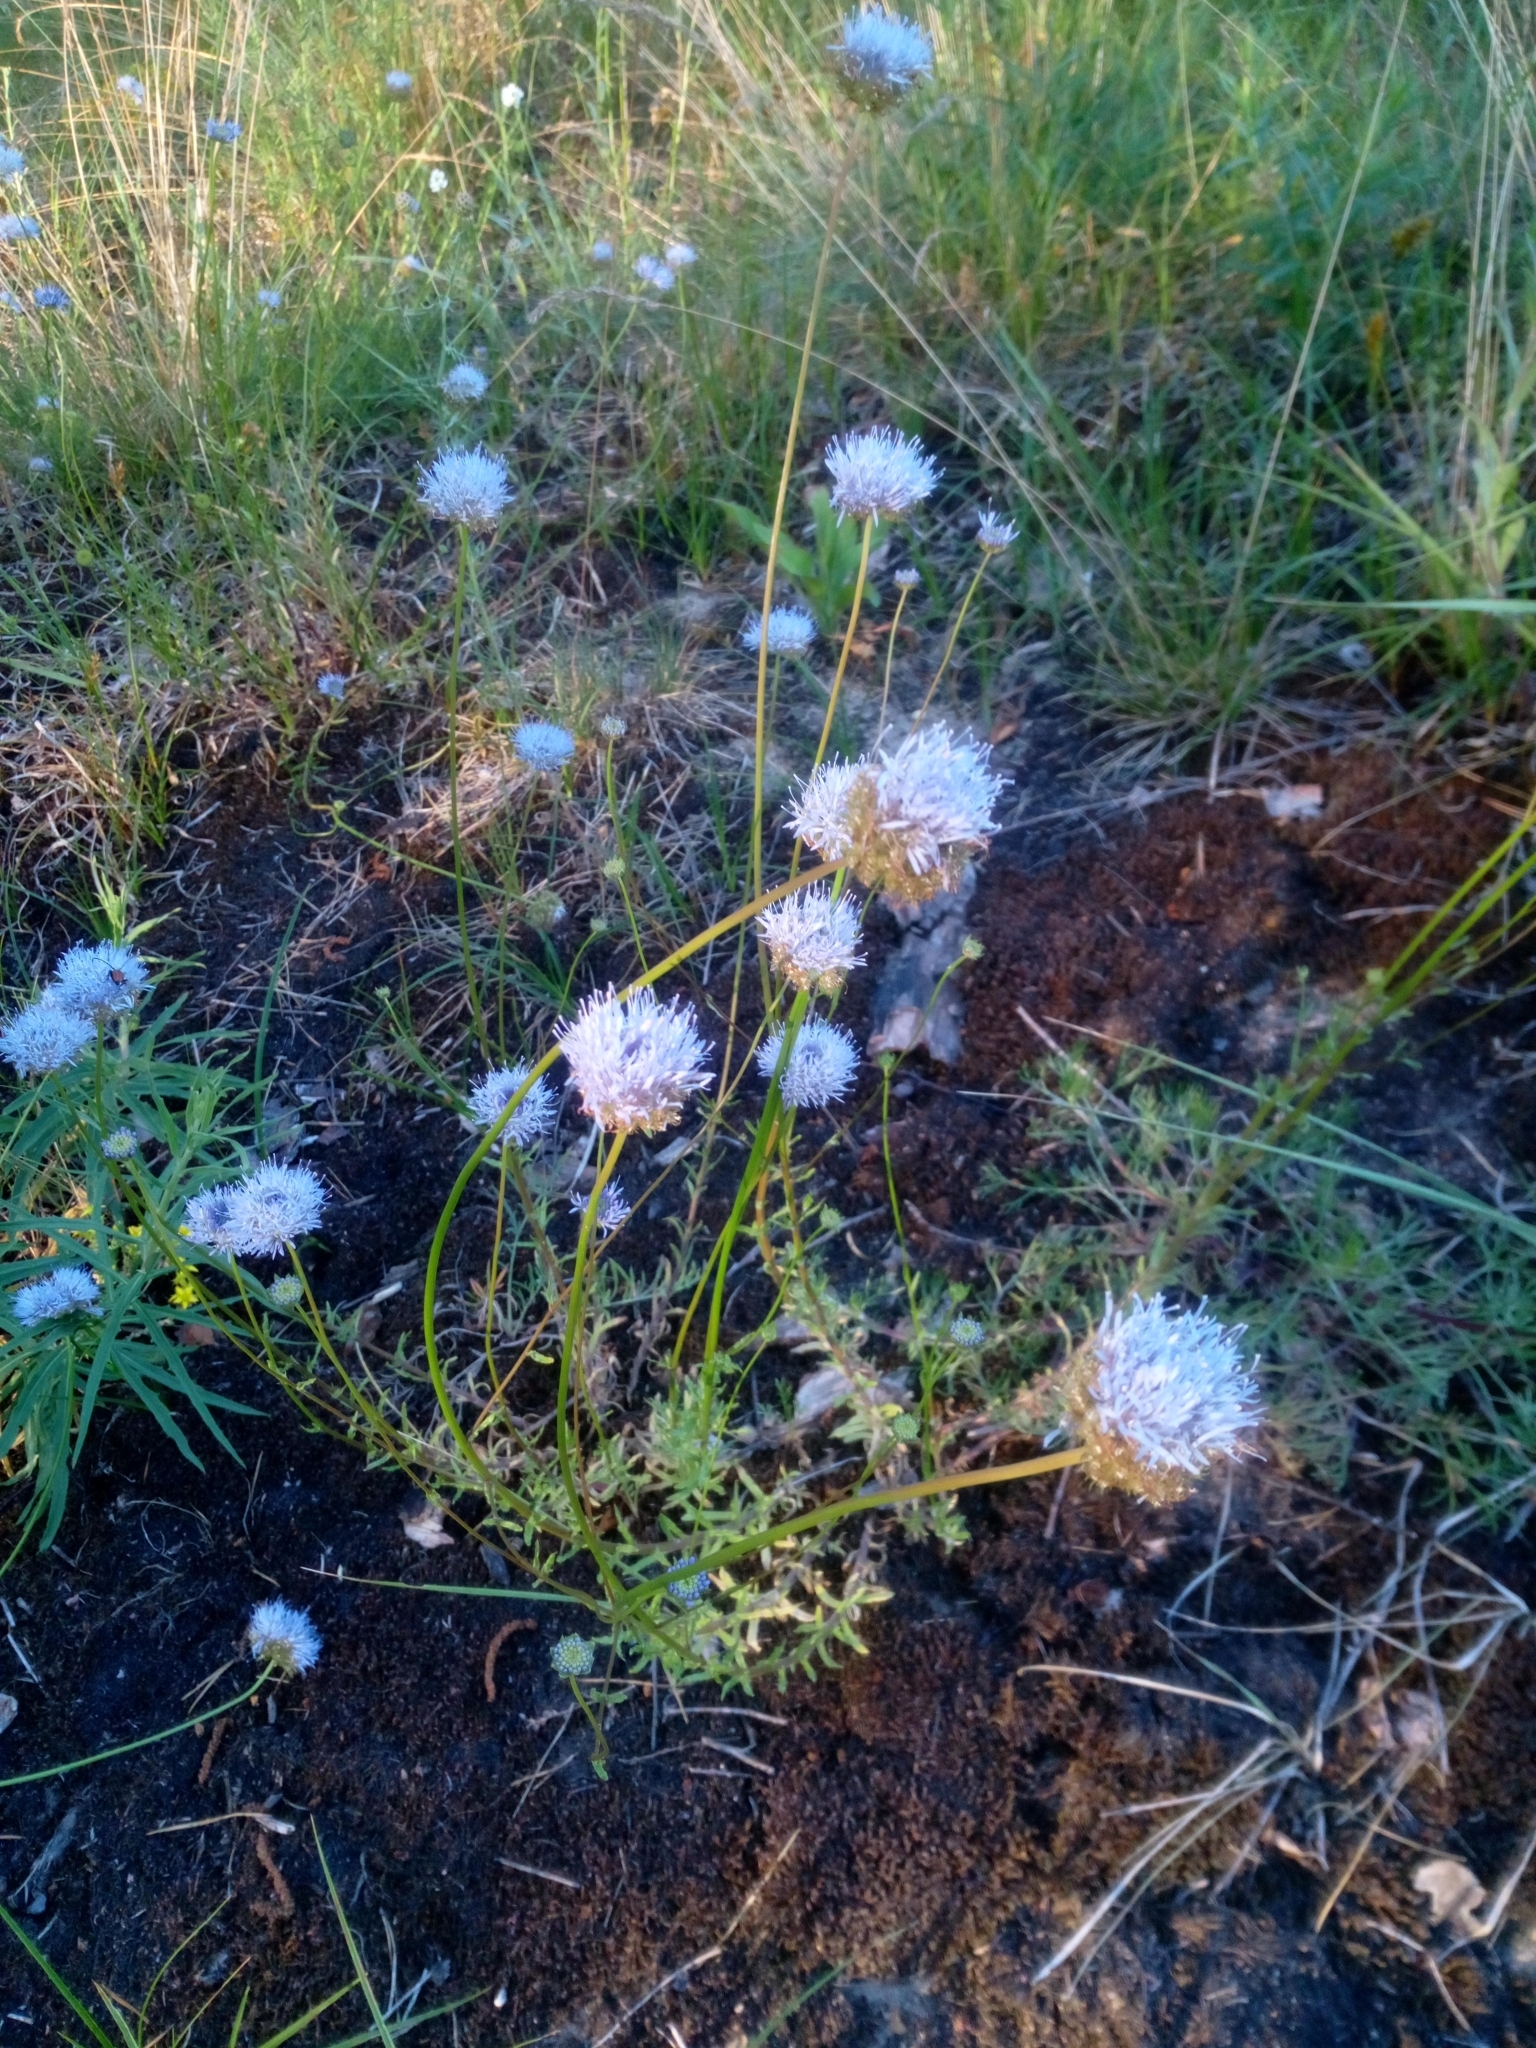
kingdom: Plantae
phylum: Tracheophyta
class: Magnoliopsida
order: Asterales
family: Campanulaceae
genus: Jasione
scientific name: Jasione montana
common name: Sheep's-bit
